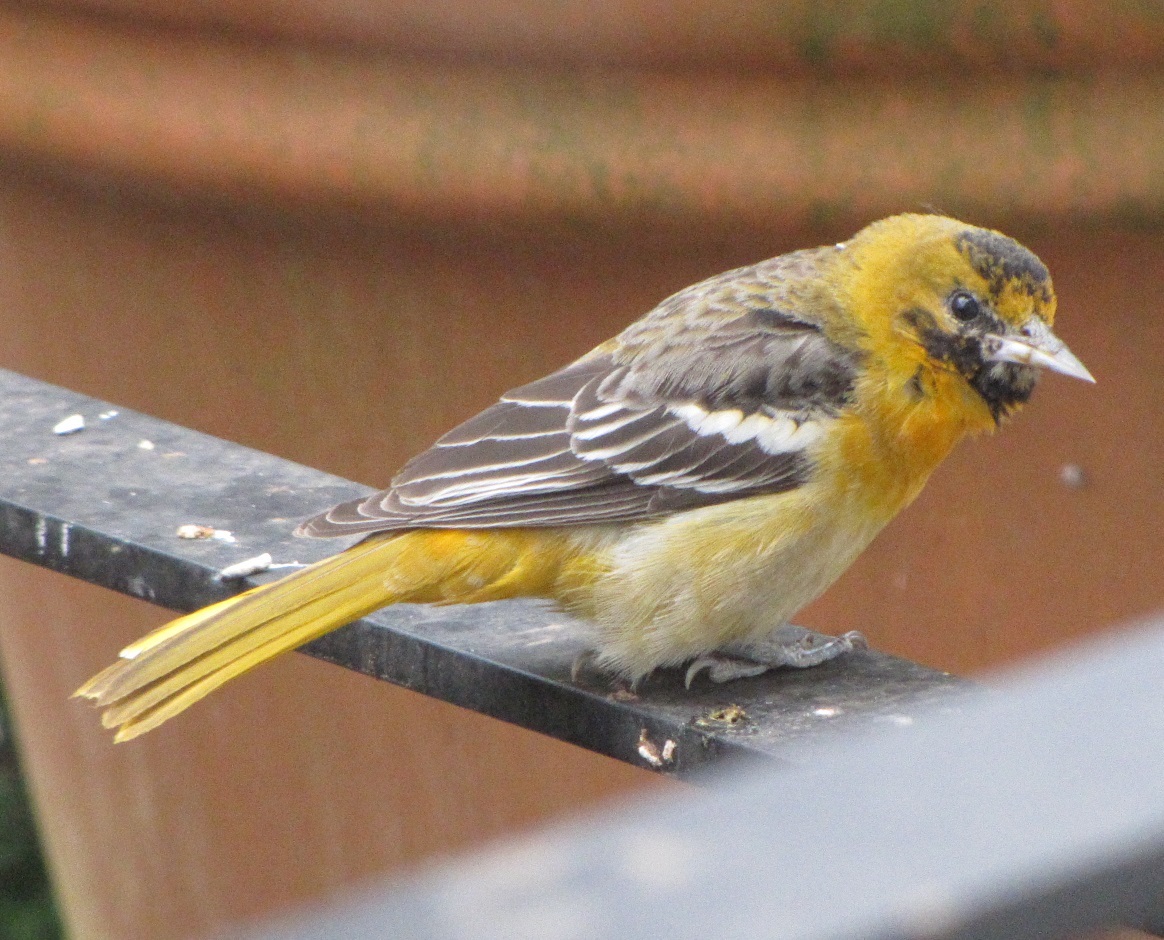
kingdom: Animalia
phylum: Chordata
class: Aves
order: Passeriformes
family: Icteridae
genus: Icterus
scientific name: Icterus galbula
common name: Baltimore oriole
